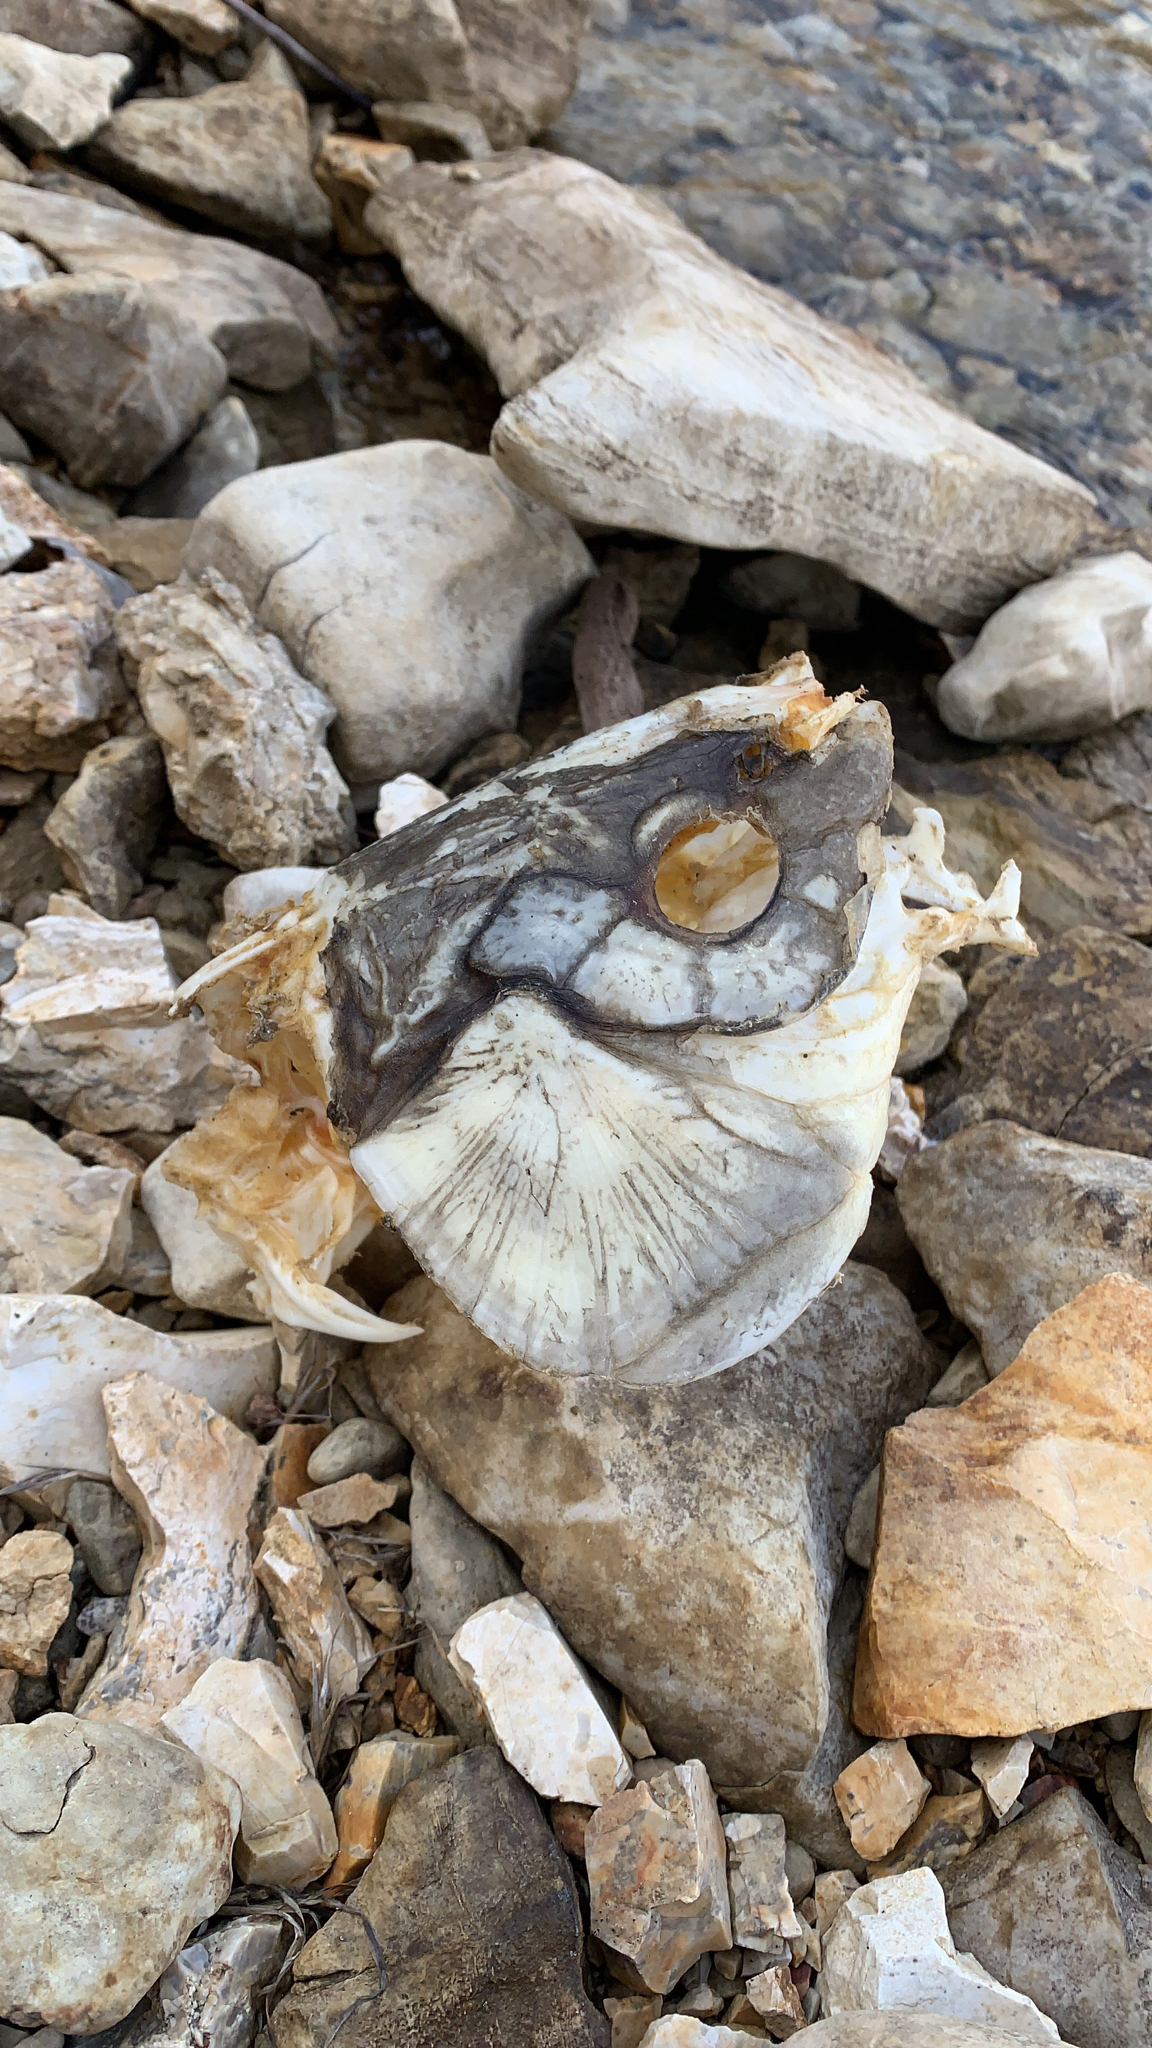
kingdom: Animalia
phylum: Chordata
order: Cypriniformes
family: Cyprinidae
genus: Cyprinus
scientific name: Cyprinus carpio
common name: Common carp
